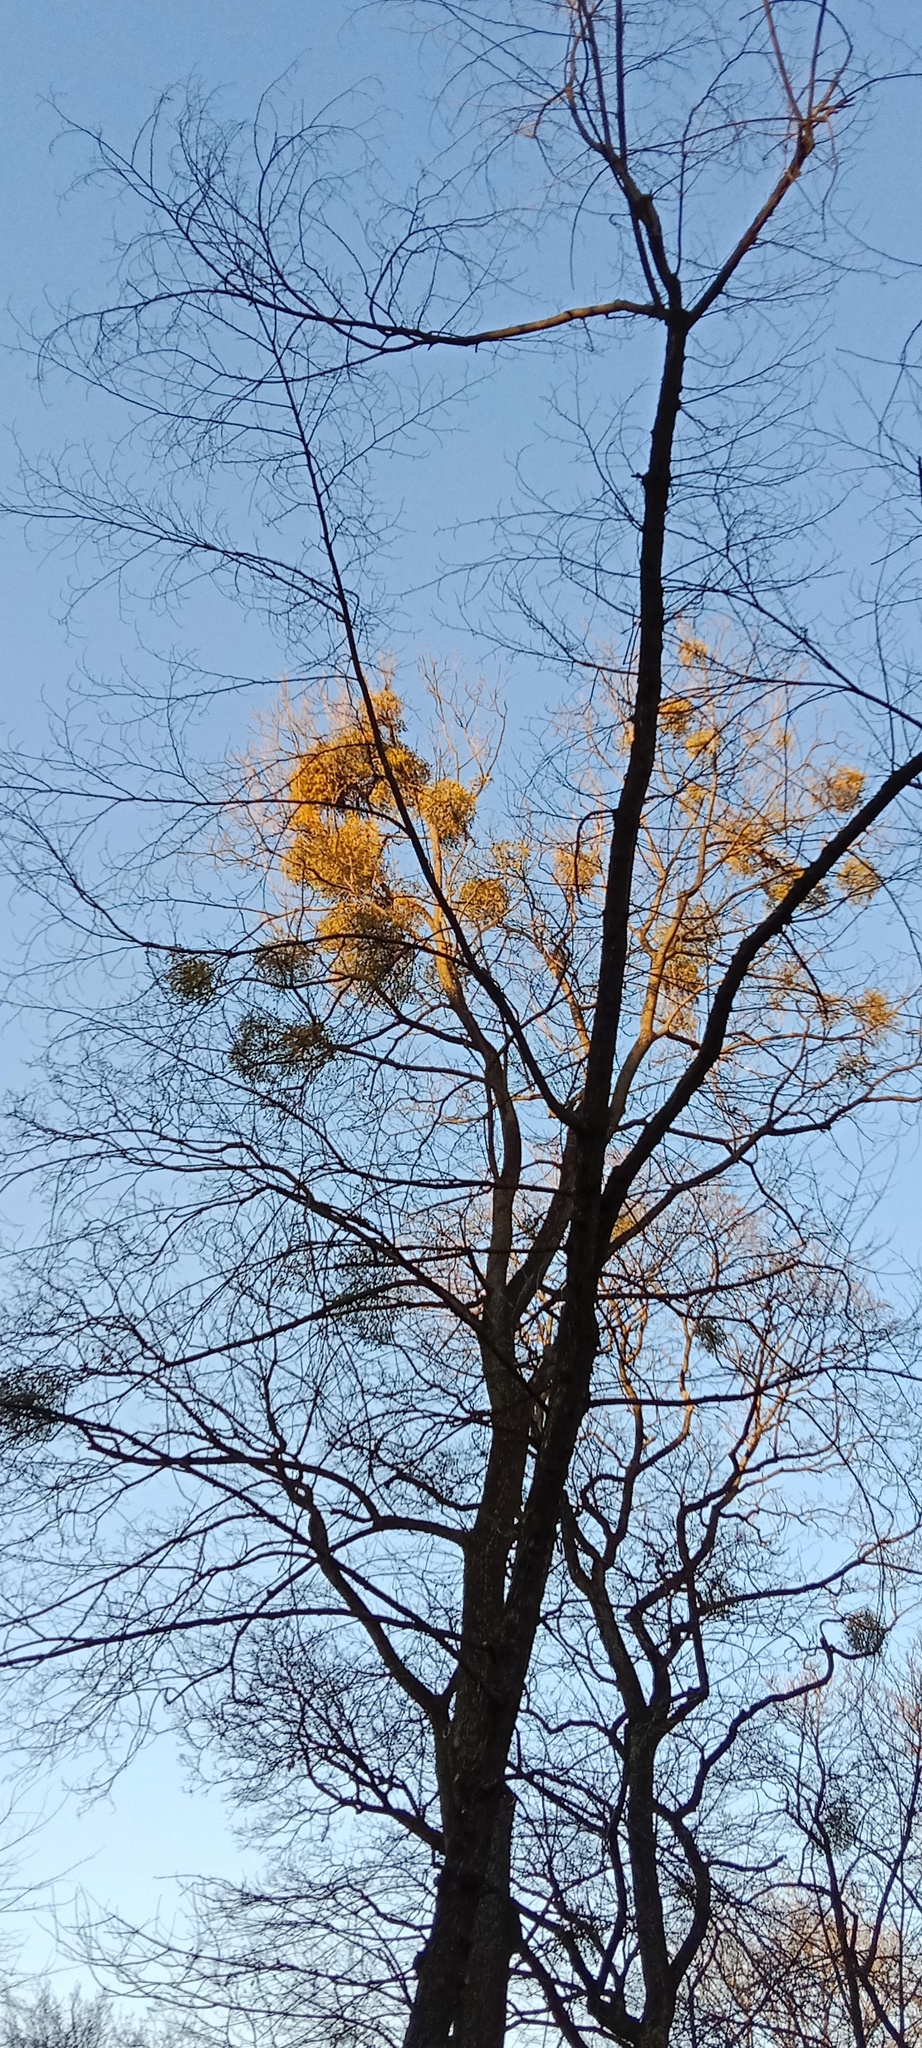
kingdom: Plantae
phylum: Tracheophyta
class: Magnoliopsida
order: Santalales
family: Viscaceae
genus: Viscum
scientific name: Viscum album
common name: Mistletoe
